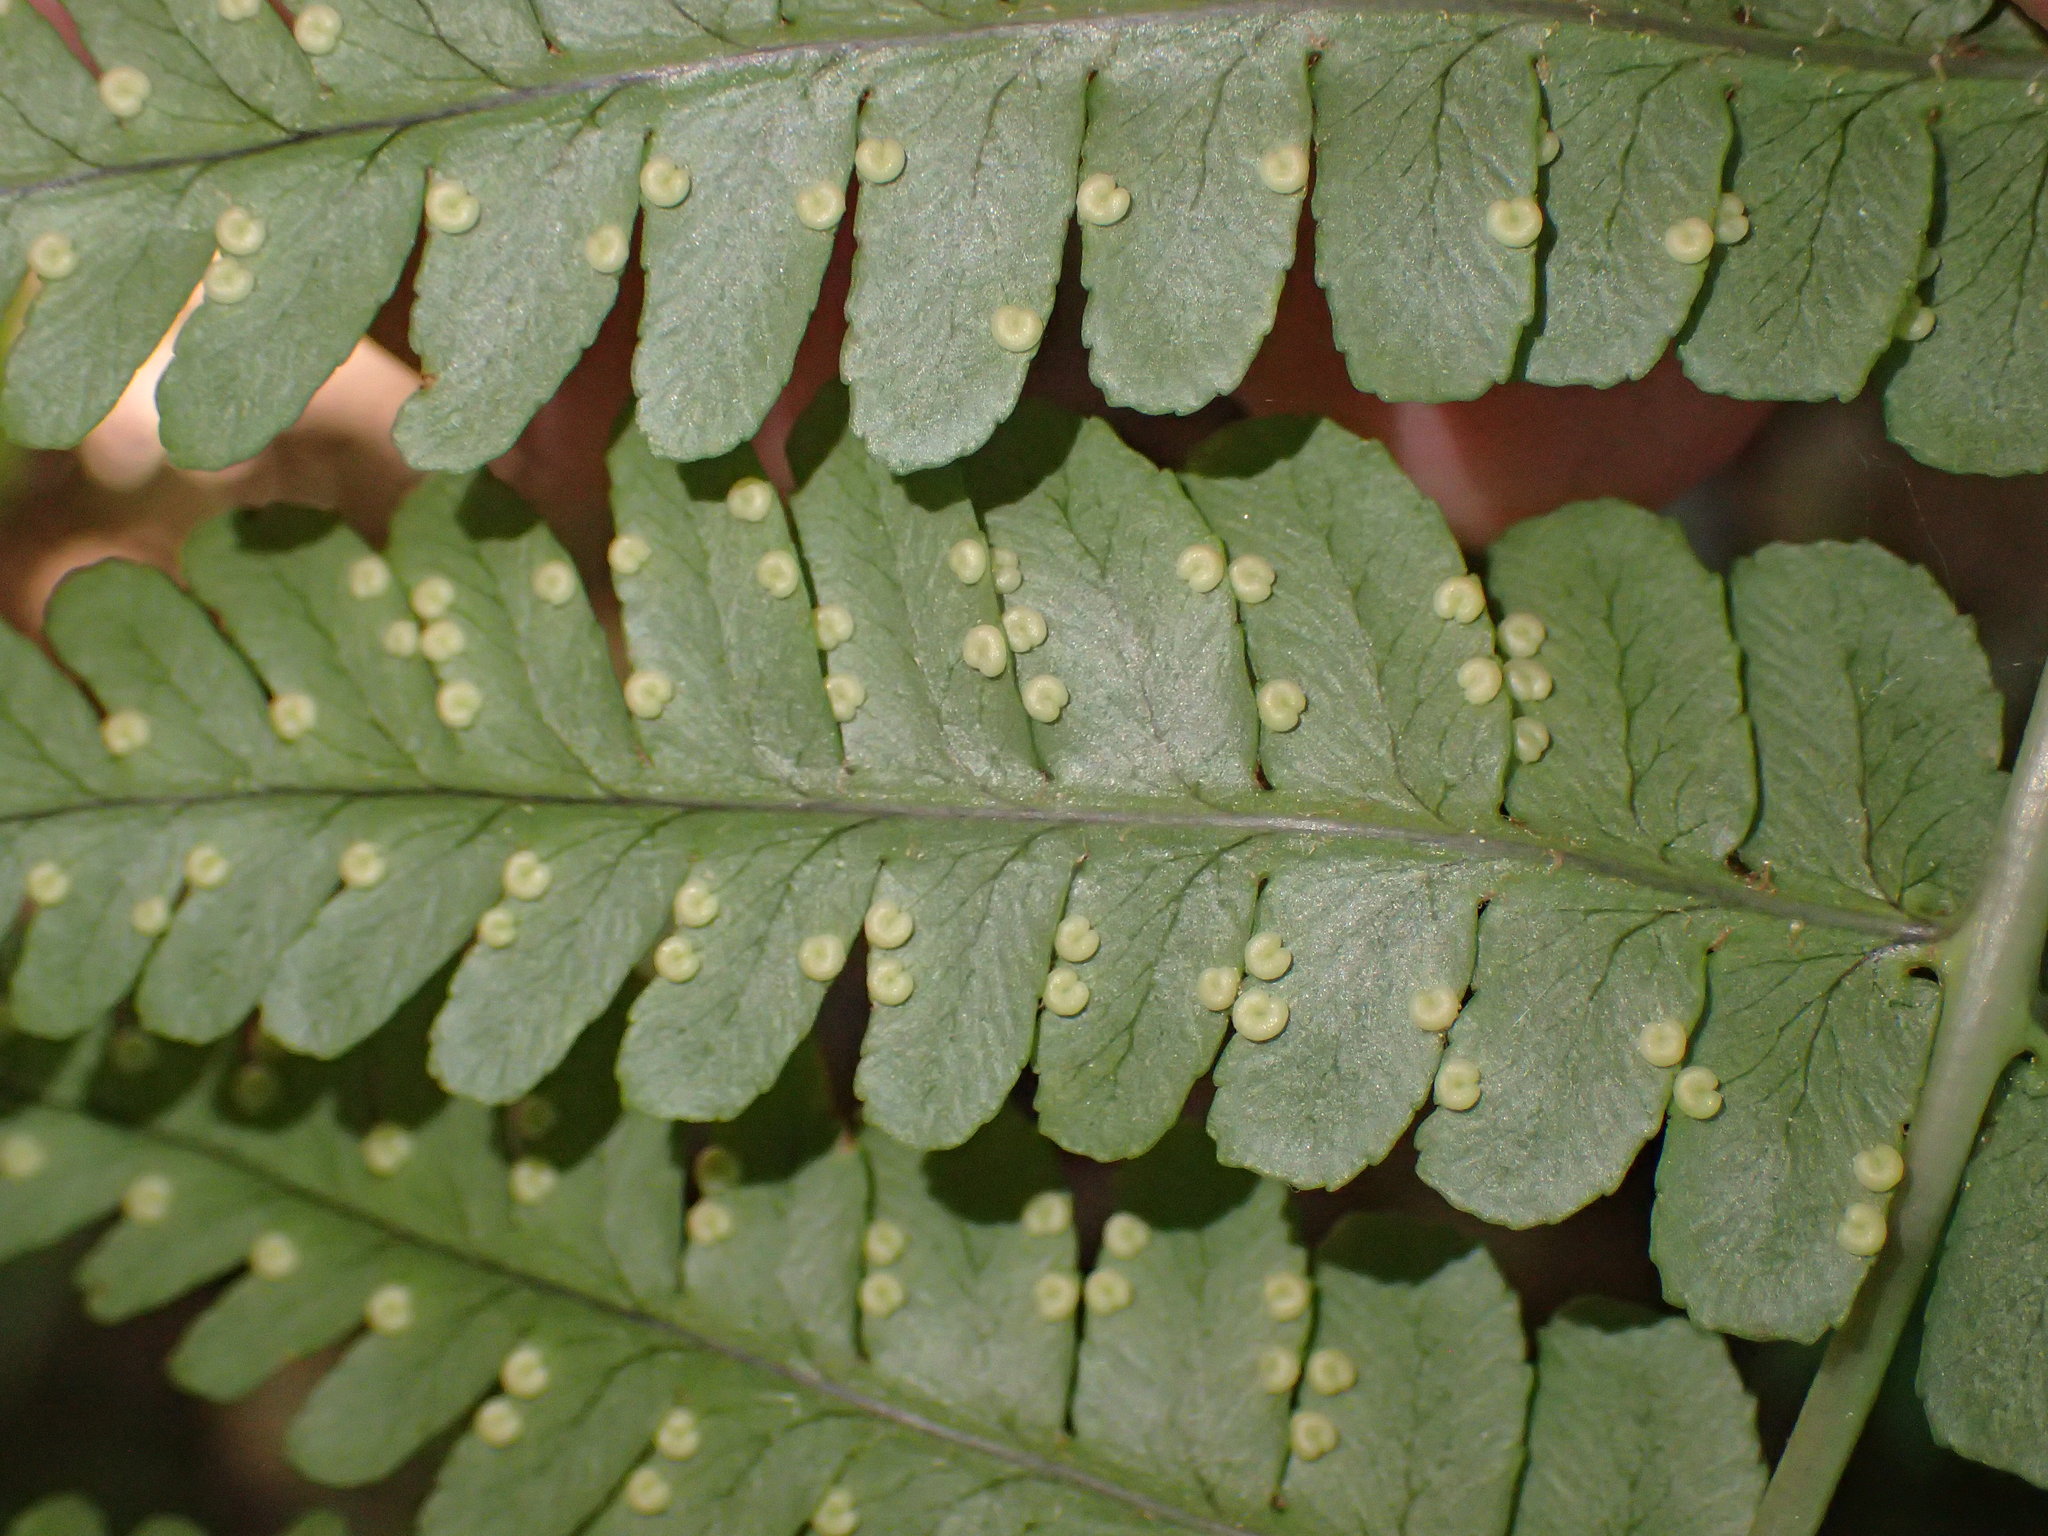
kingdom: Plantae
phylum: Tracheophyta
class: Polypodiopsida
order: Polypodiales
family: Dryopteridaceae
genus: Dryopteris
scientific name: Dryopteris marginalis
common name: Marginal wood fern
